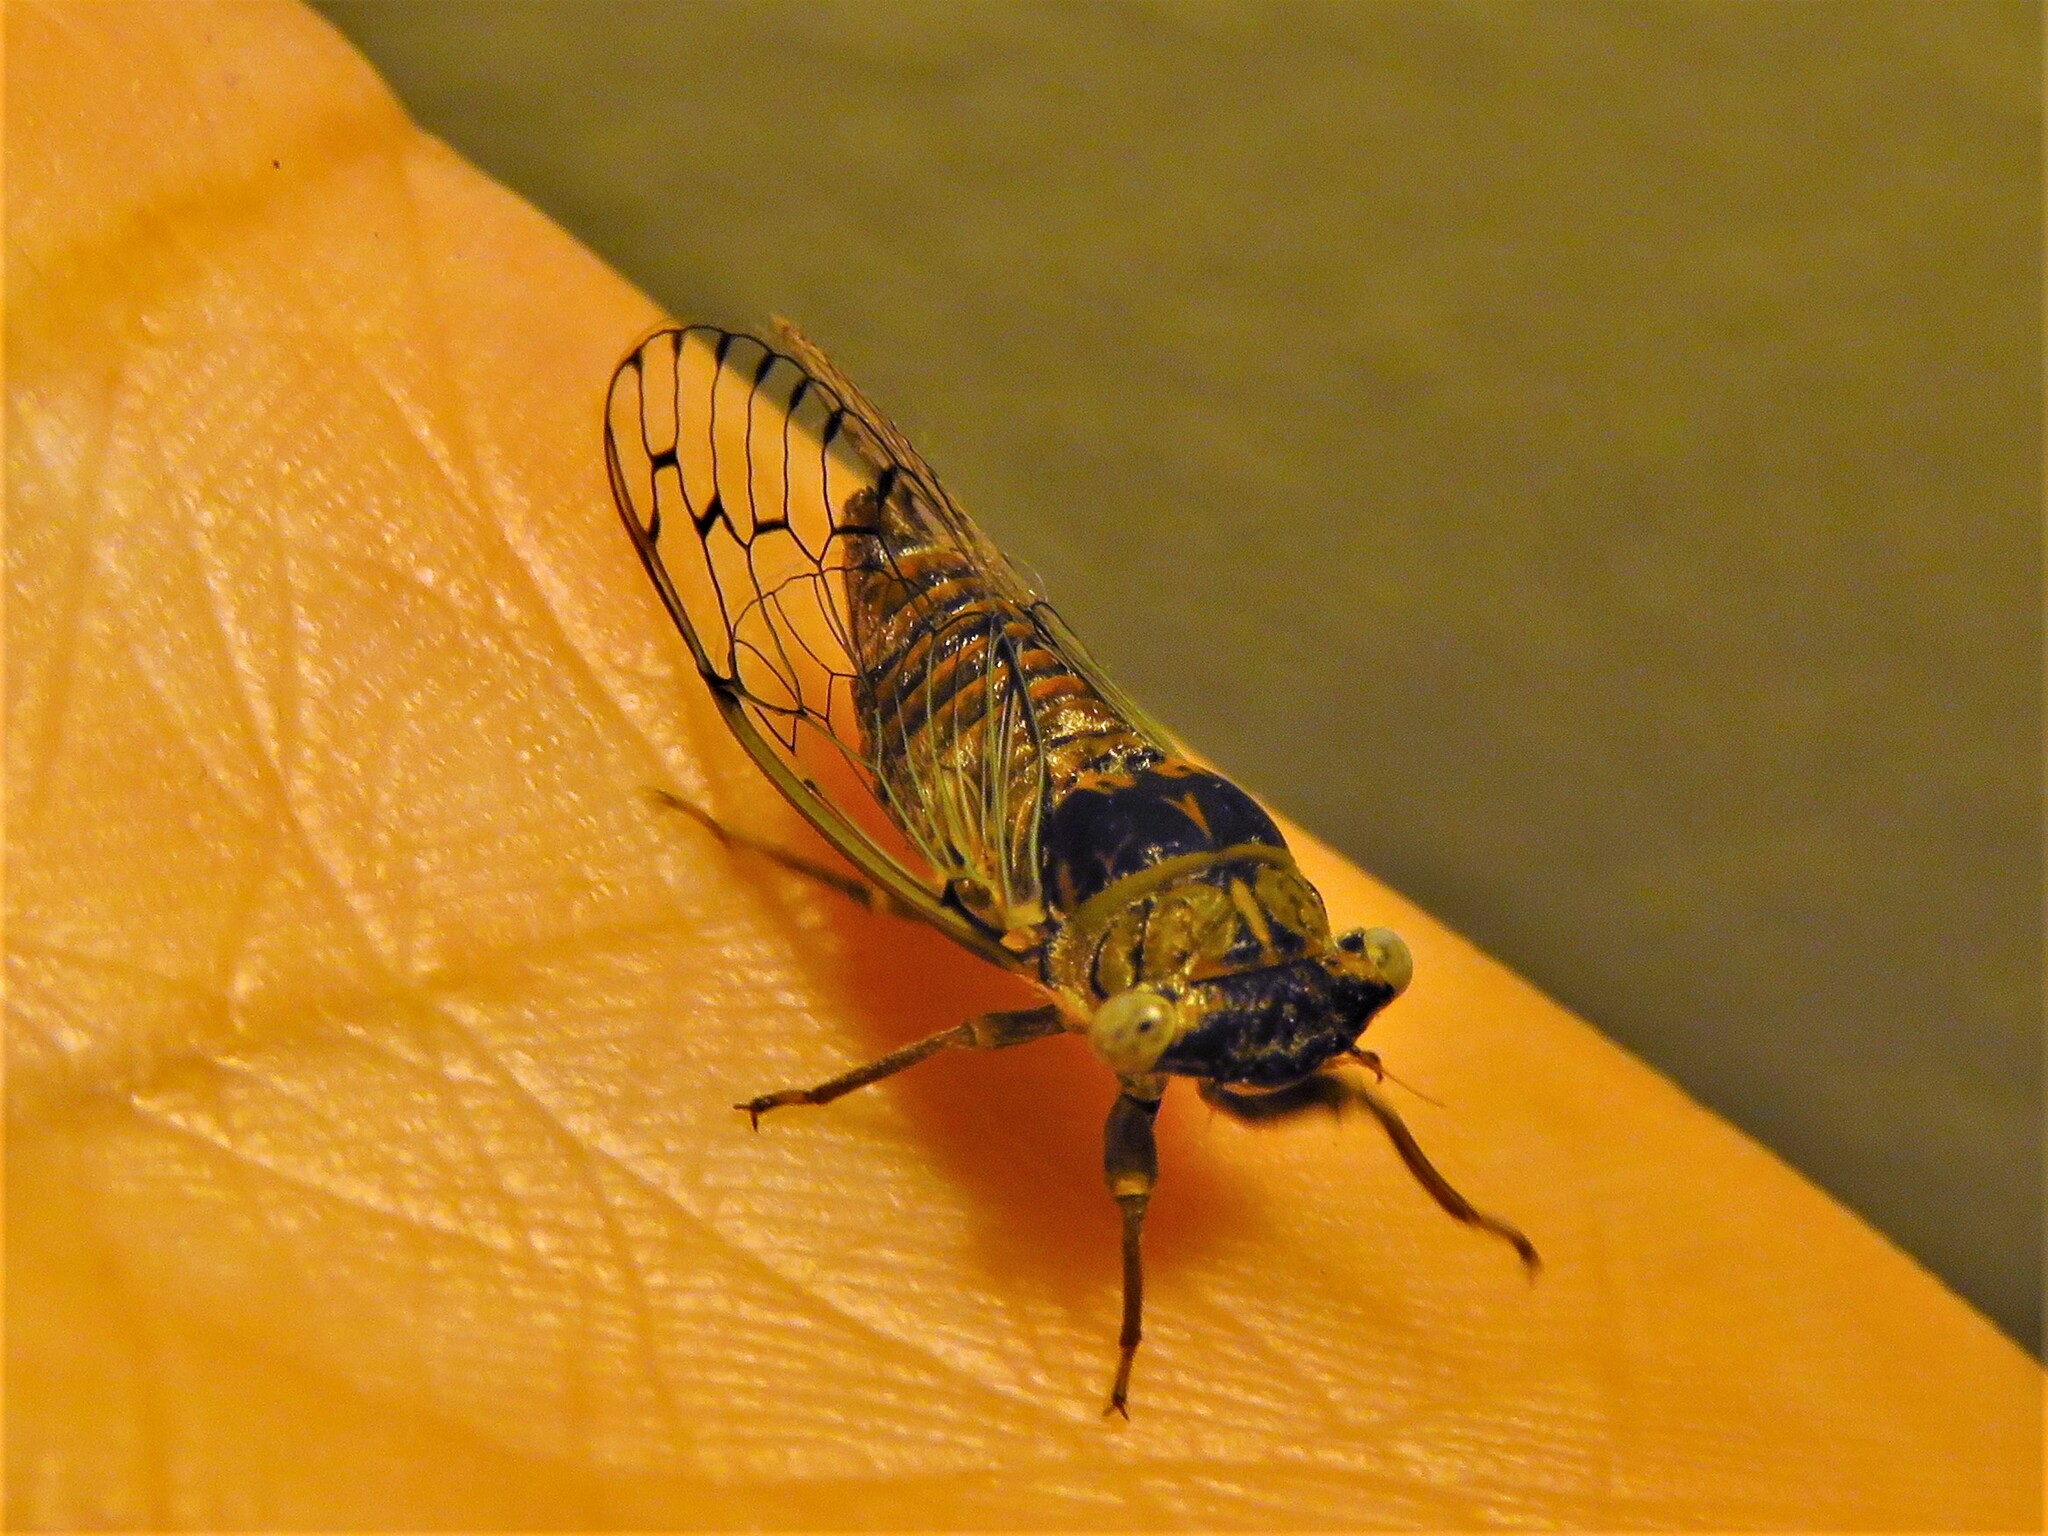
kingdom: Animalia
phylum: Arthropoda
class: Insecta
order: Hemiptera
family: Cicadidae
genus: Pacarina
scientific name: Pacarina puella
